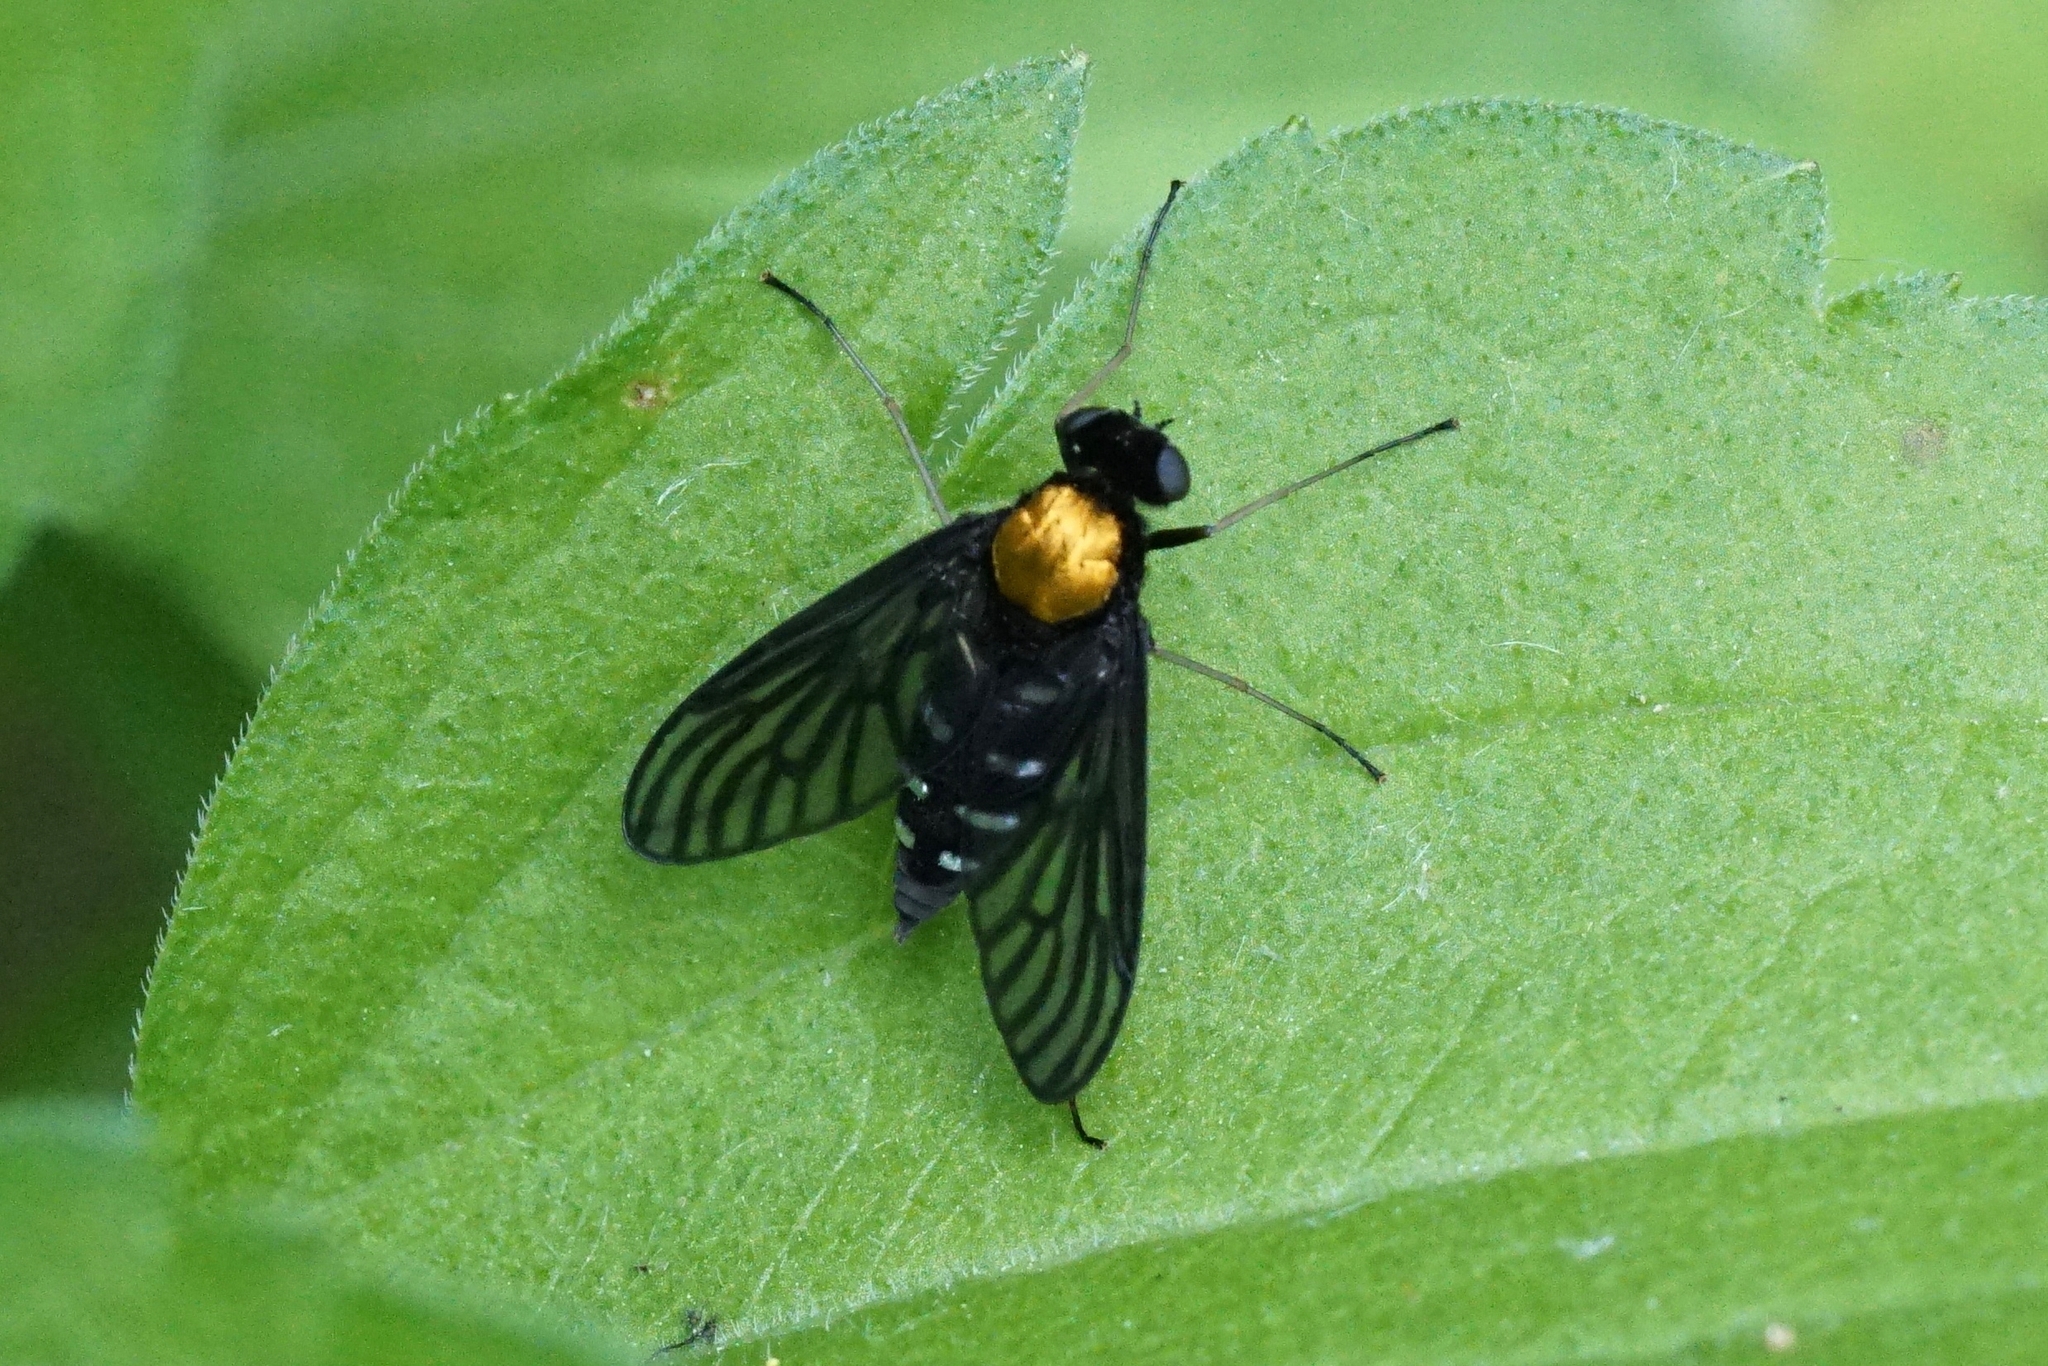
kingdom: Animalia
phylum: Arthropoda
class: Insecta
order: Diptera
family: Rhagionidae
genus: Chrysopilus
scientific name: Chrysopilus thoracicus
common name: Golden-backed snipe fly
